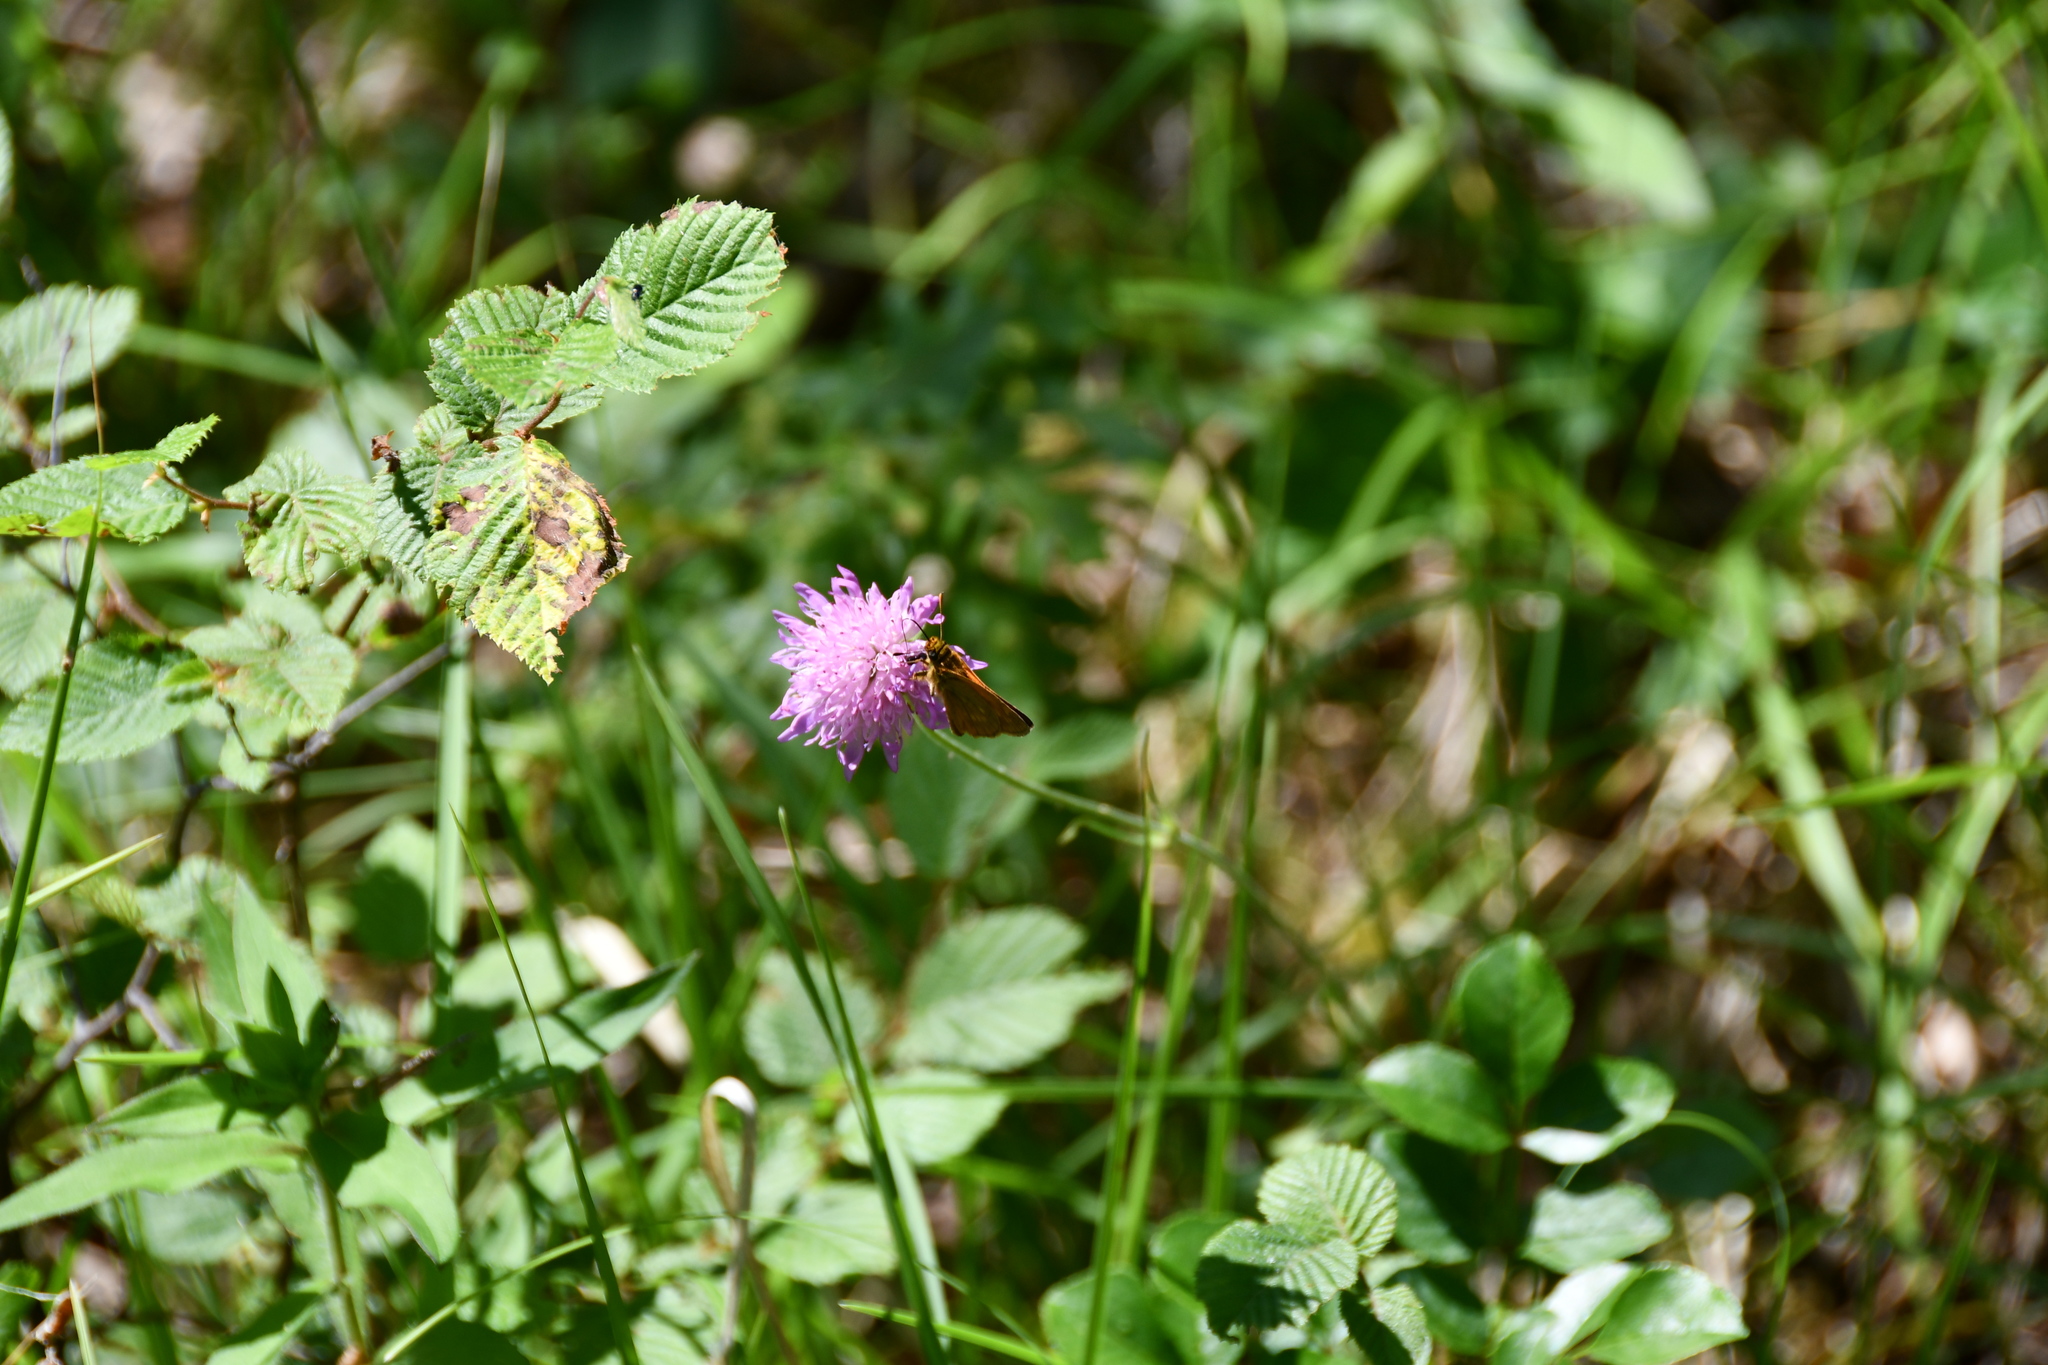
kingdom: Animalia
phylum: Arthropoda
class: Insecta
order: Lepidoptera
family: Hesperiidae
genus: Ochlodes
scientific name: Ochlodes venata
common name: Large skipper
